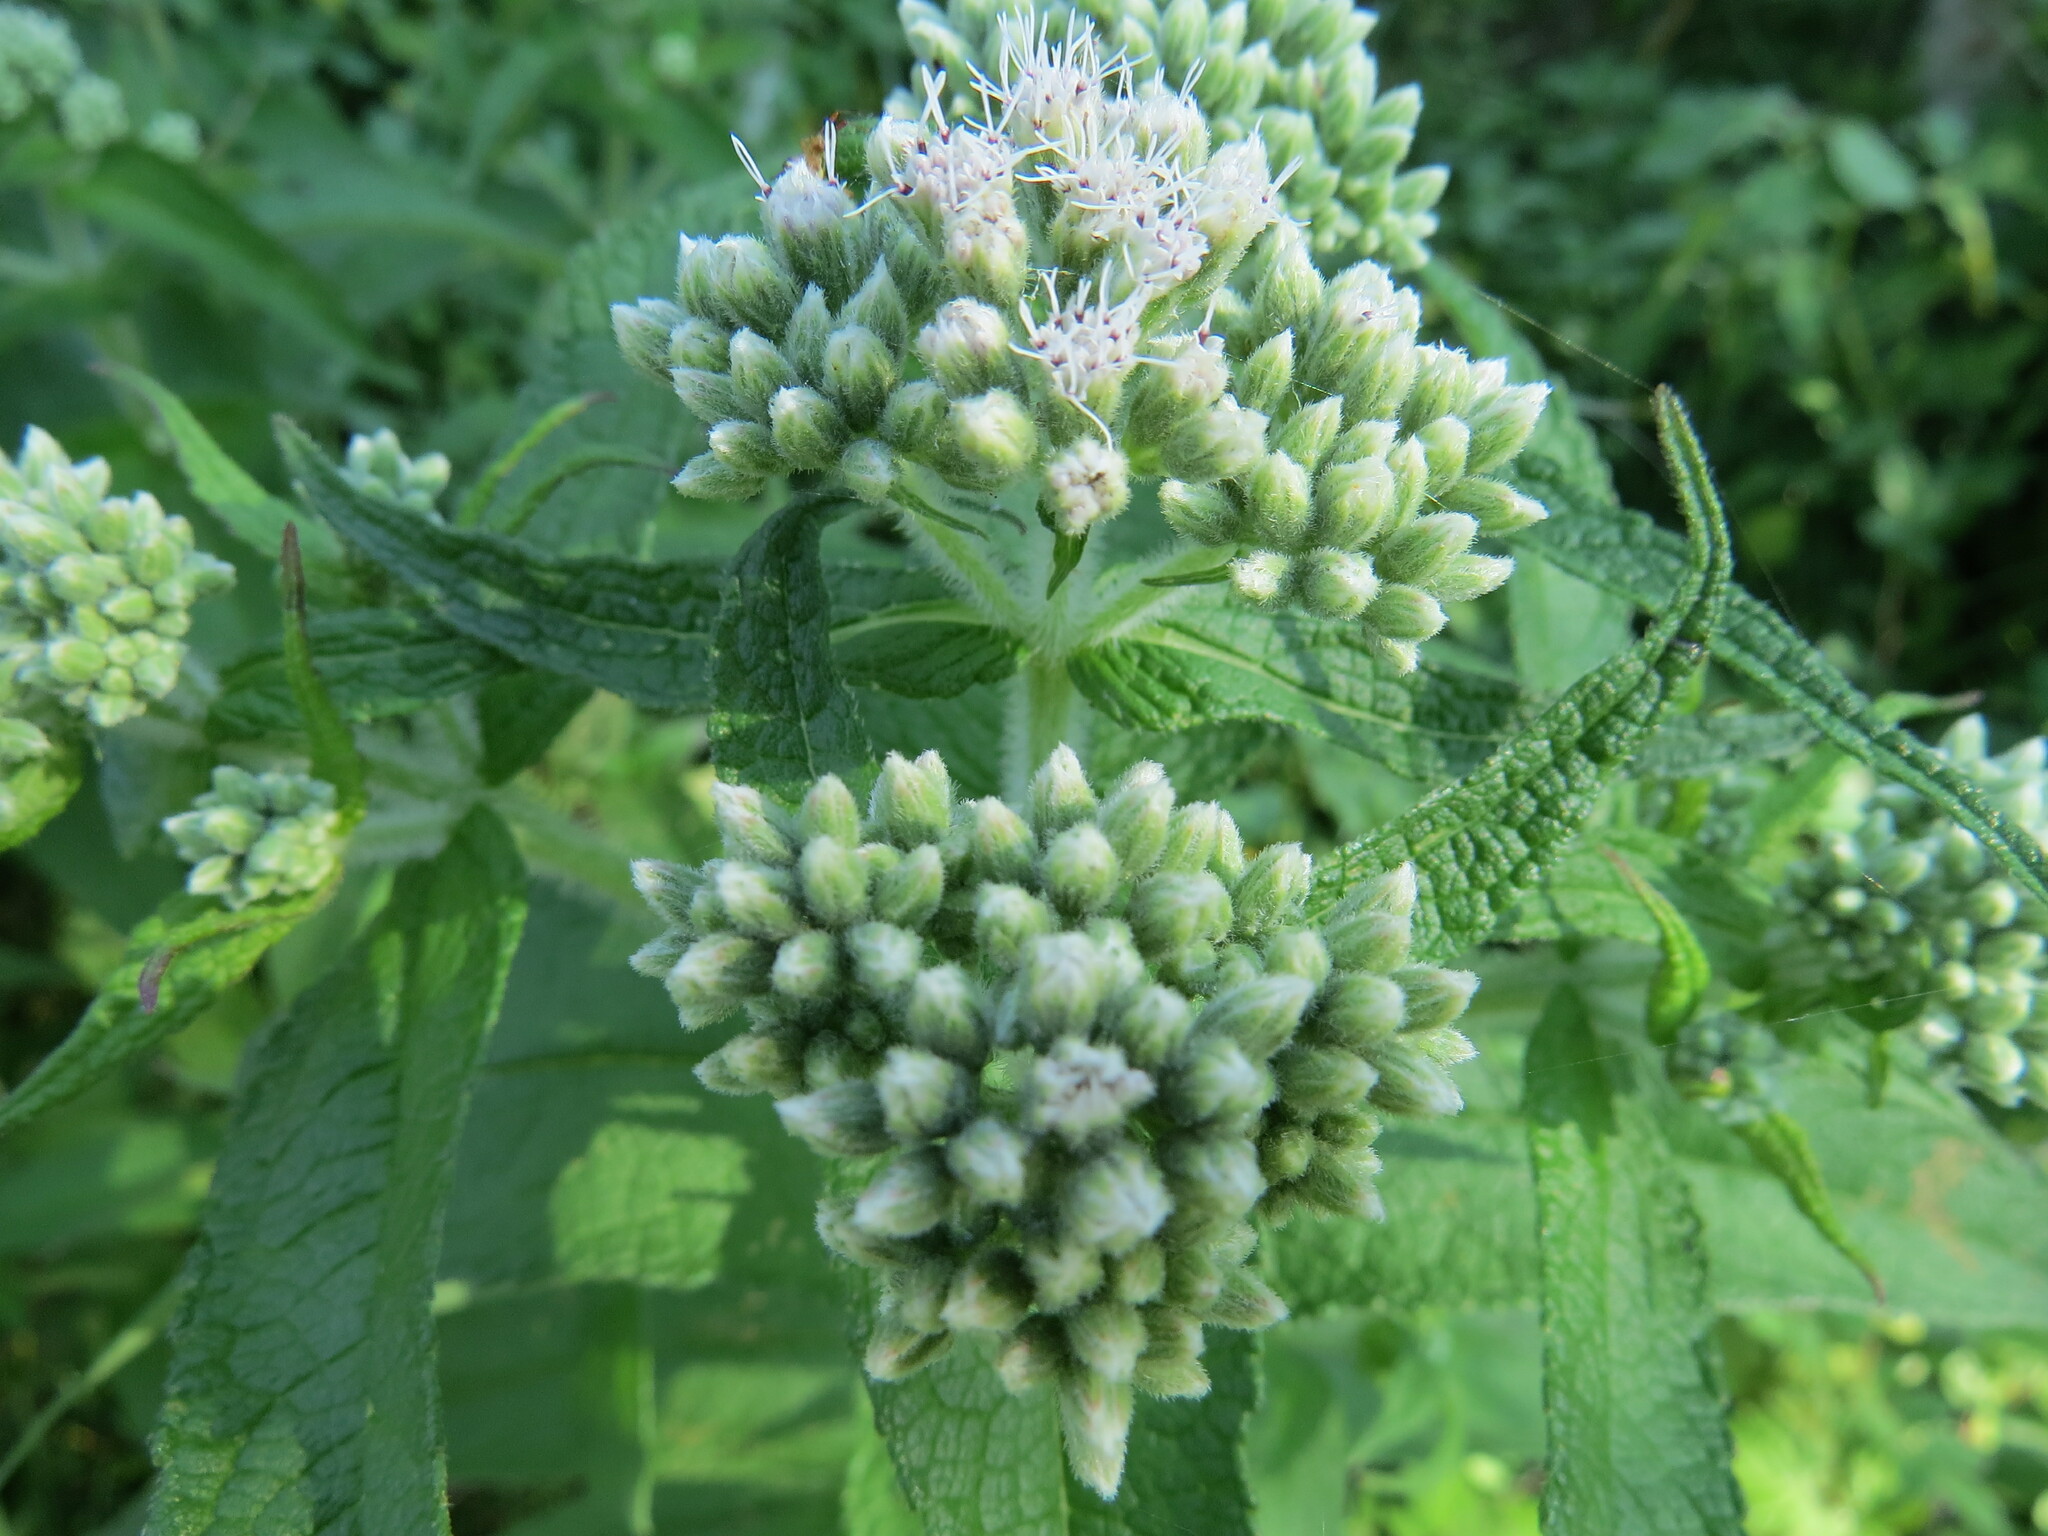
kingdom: Plantae
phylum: Tracheophyta
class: Magnoliopsida
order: Asterales
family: Asteraceae
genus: Eupatorium
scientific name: Eupatorium perfoliatum
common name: Boneset
